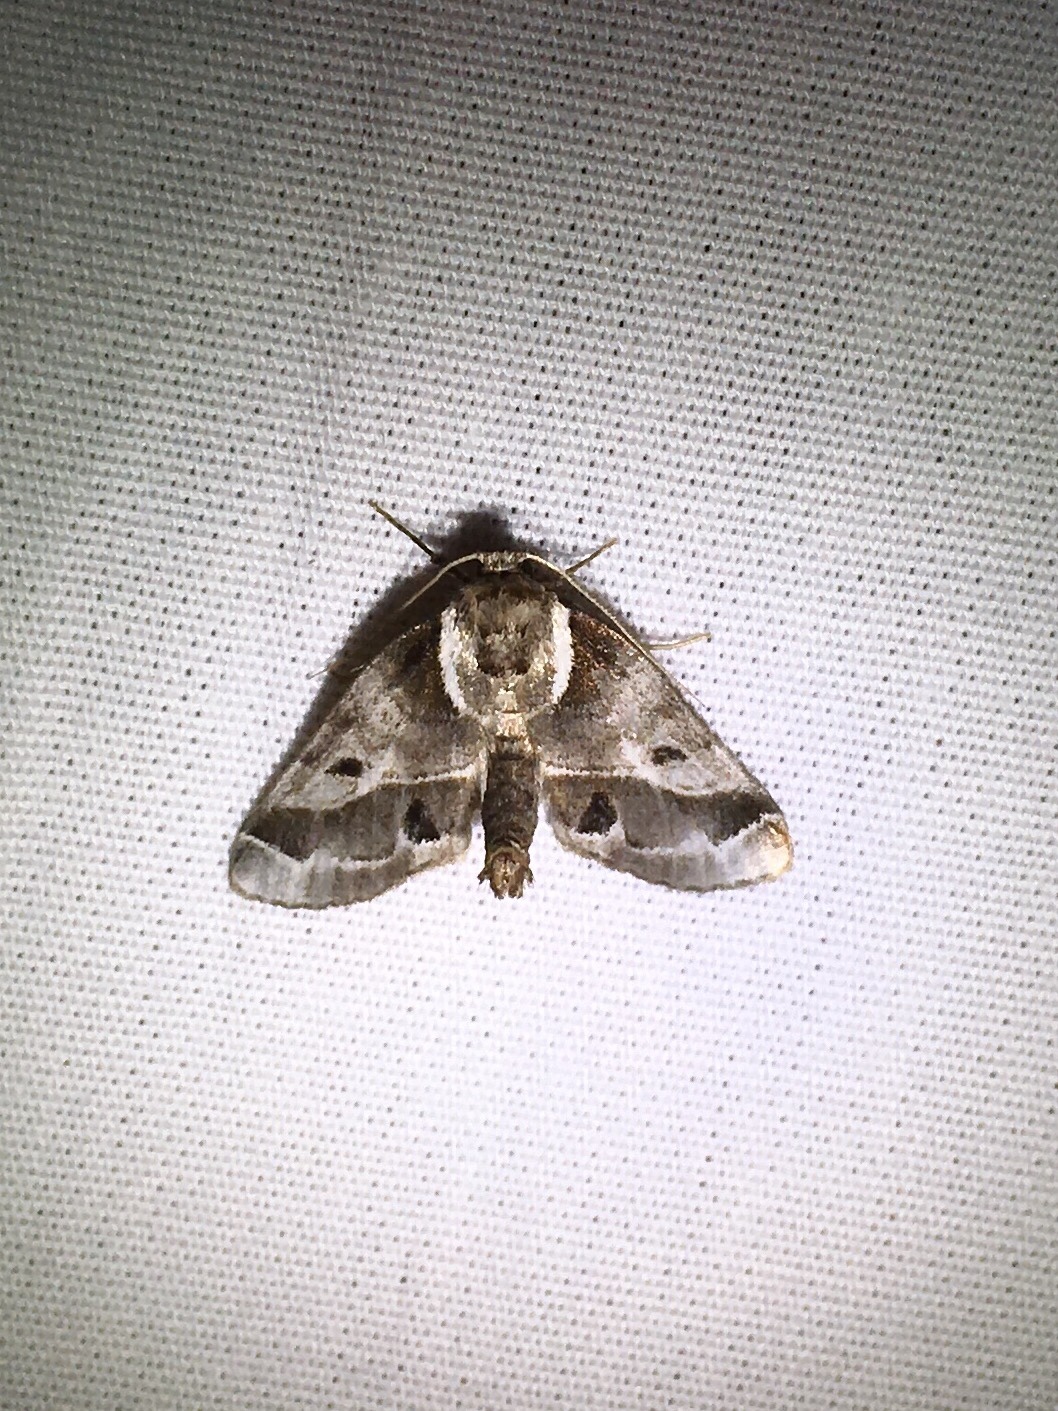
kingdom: Animalia
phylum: Arthropoda
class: Insecta
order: Lepidoptera
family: Nolidae
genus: Baileya
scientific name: Baileya doubledayi
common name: Doubleday's baileya moth
